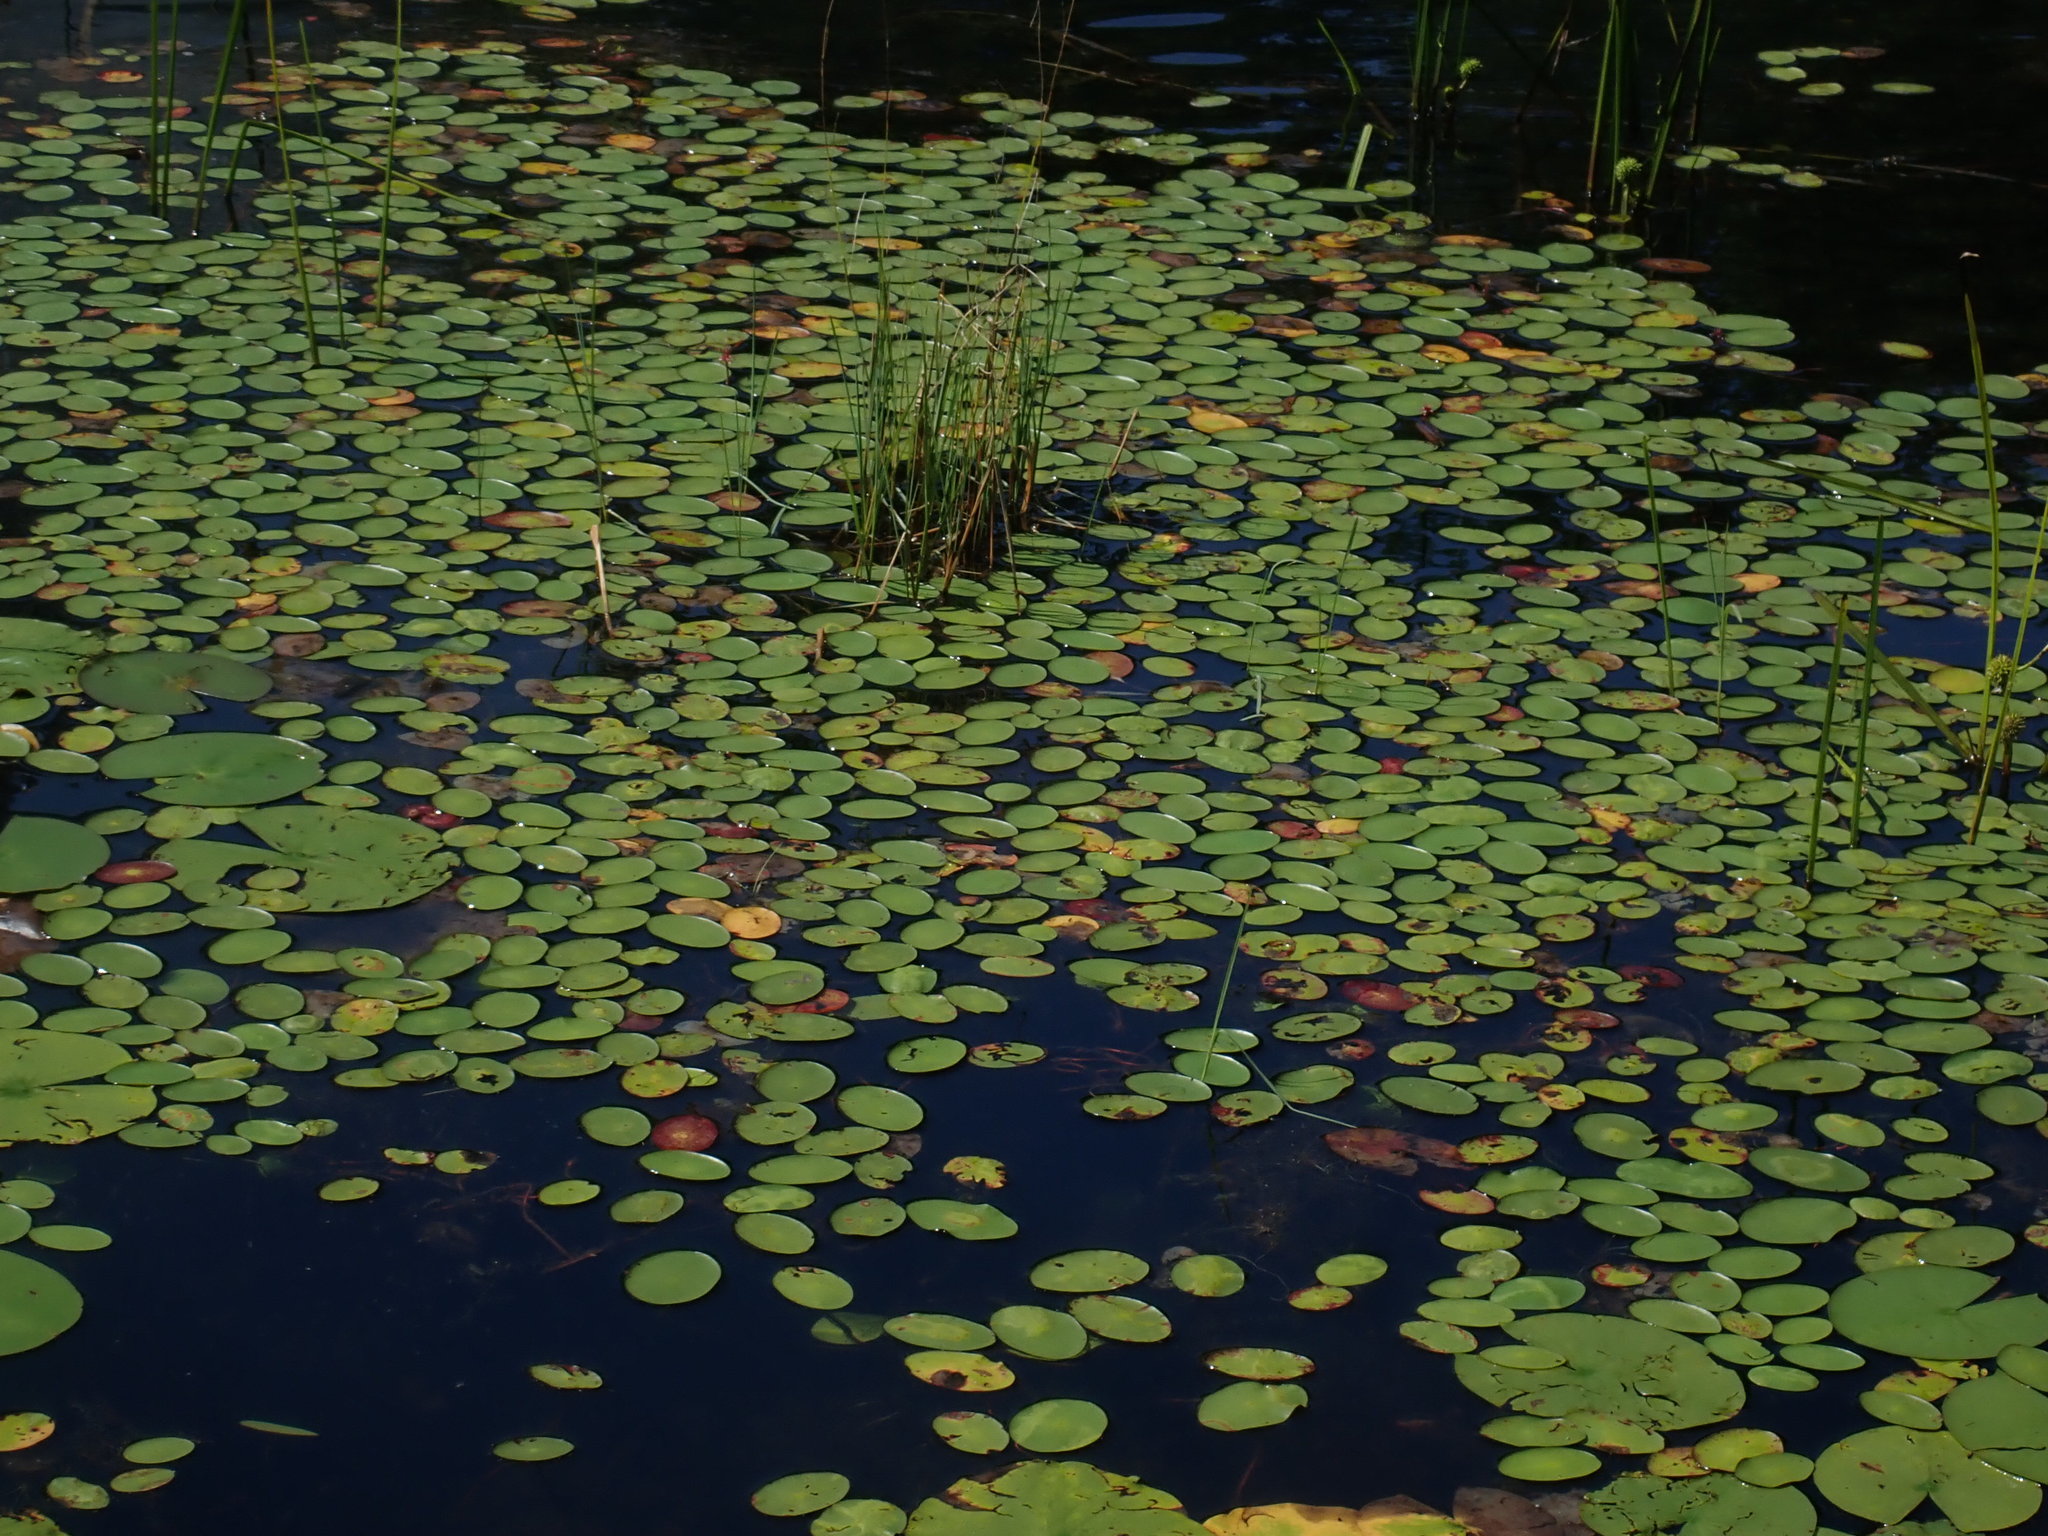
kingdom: Plantae
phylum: Tracheophyta
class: Magnoliopsida
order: Nymphaeales
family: Cabombaceae
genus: Brasenia
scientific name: Brasenia schreberi
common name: Water-shield
